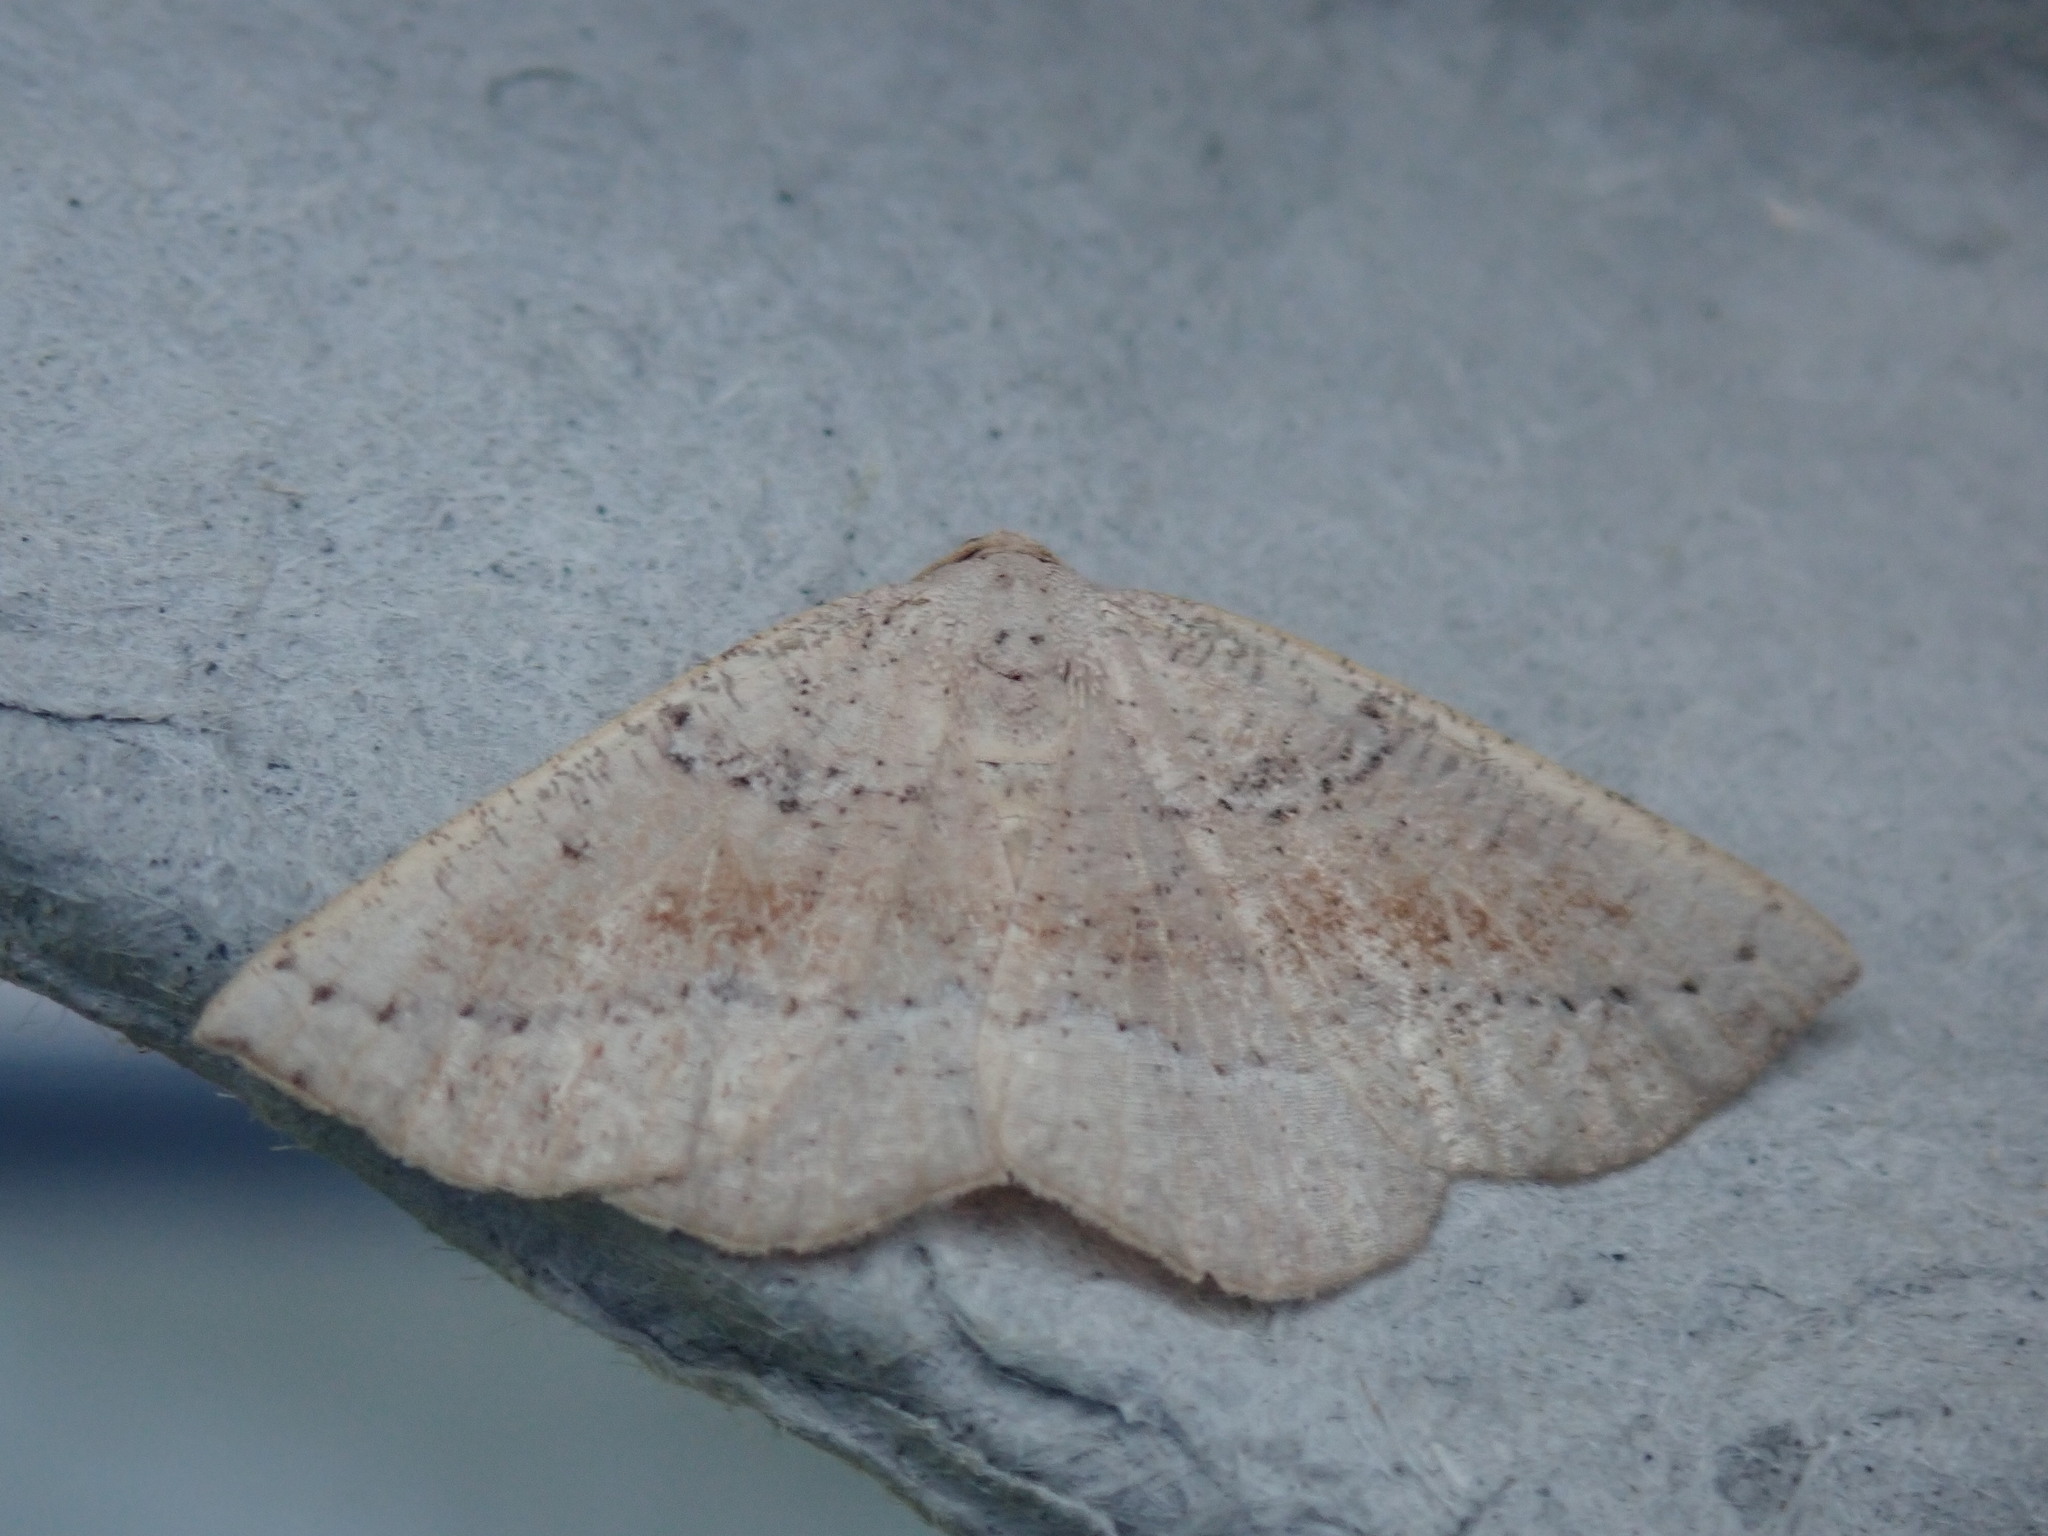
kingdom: Animalia
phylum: Arthropoda
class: Insecta
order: Lepidoptera
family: Geometridae
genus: Tacparia
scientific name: Tacparia atropunctata
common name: Northern pale alder
